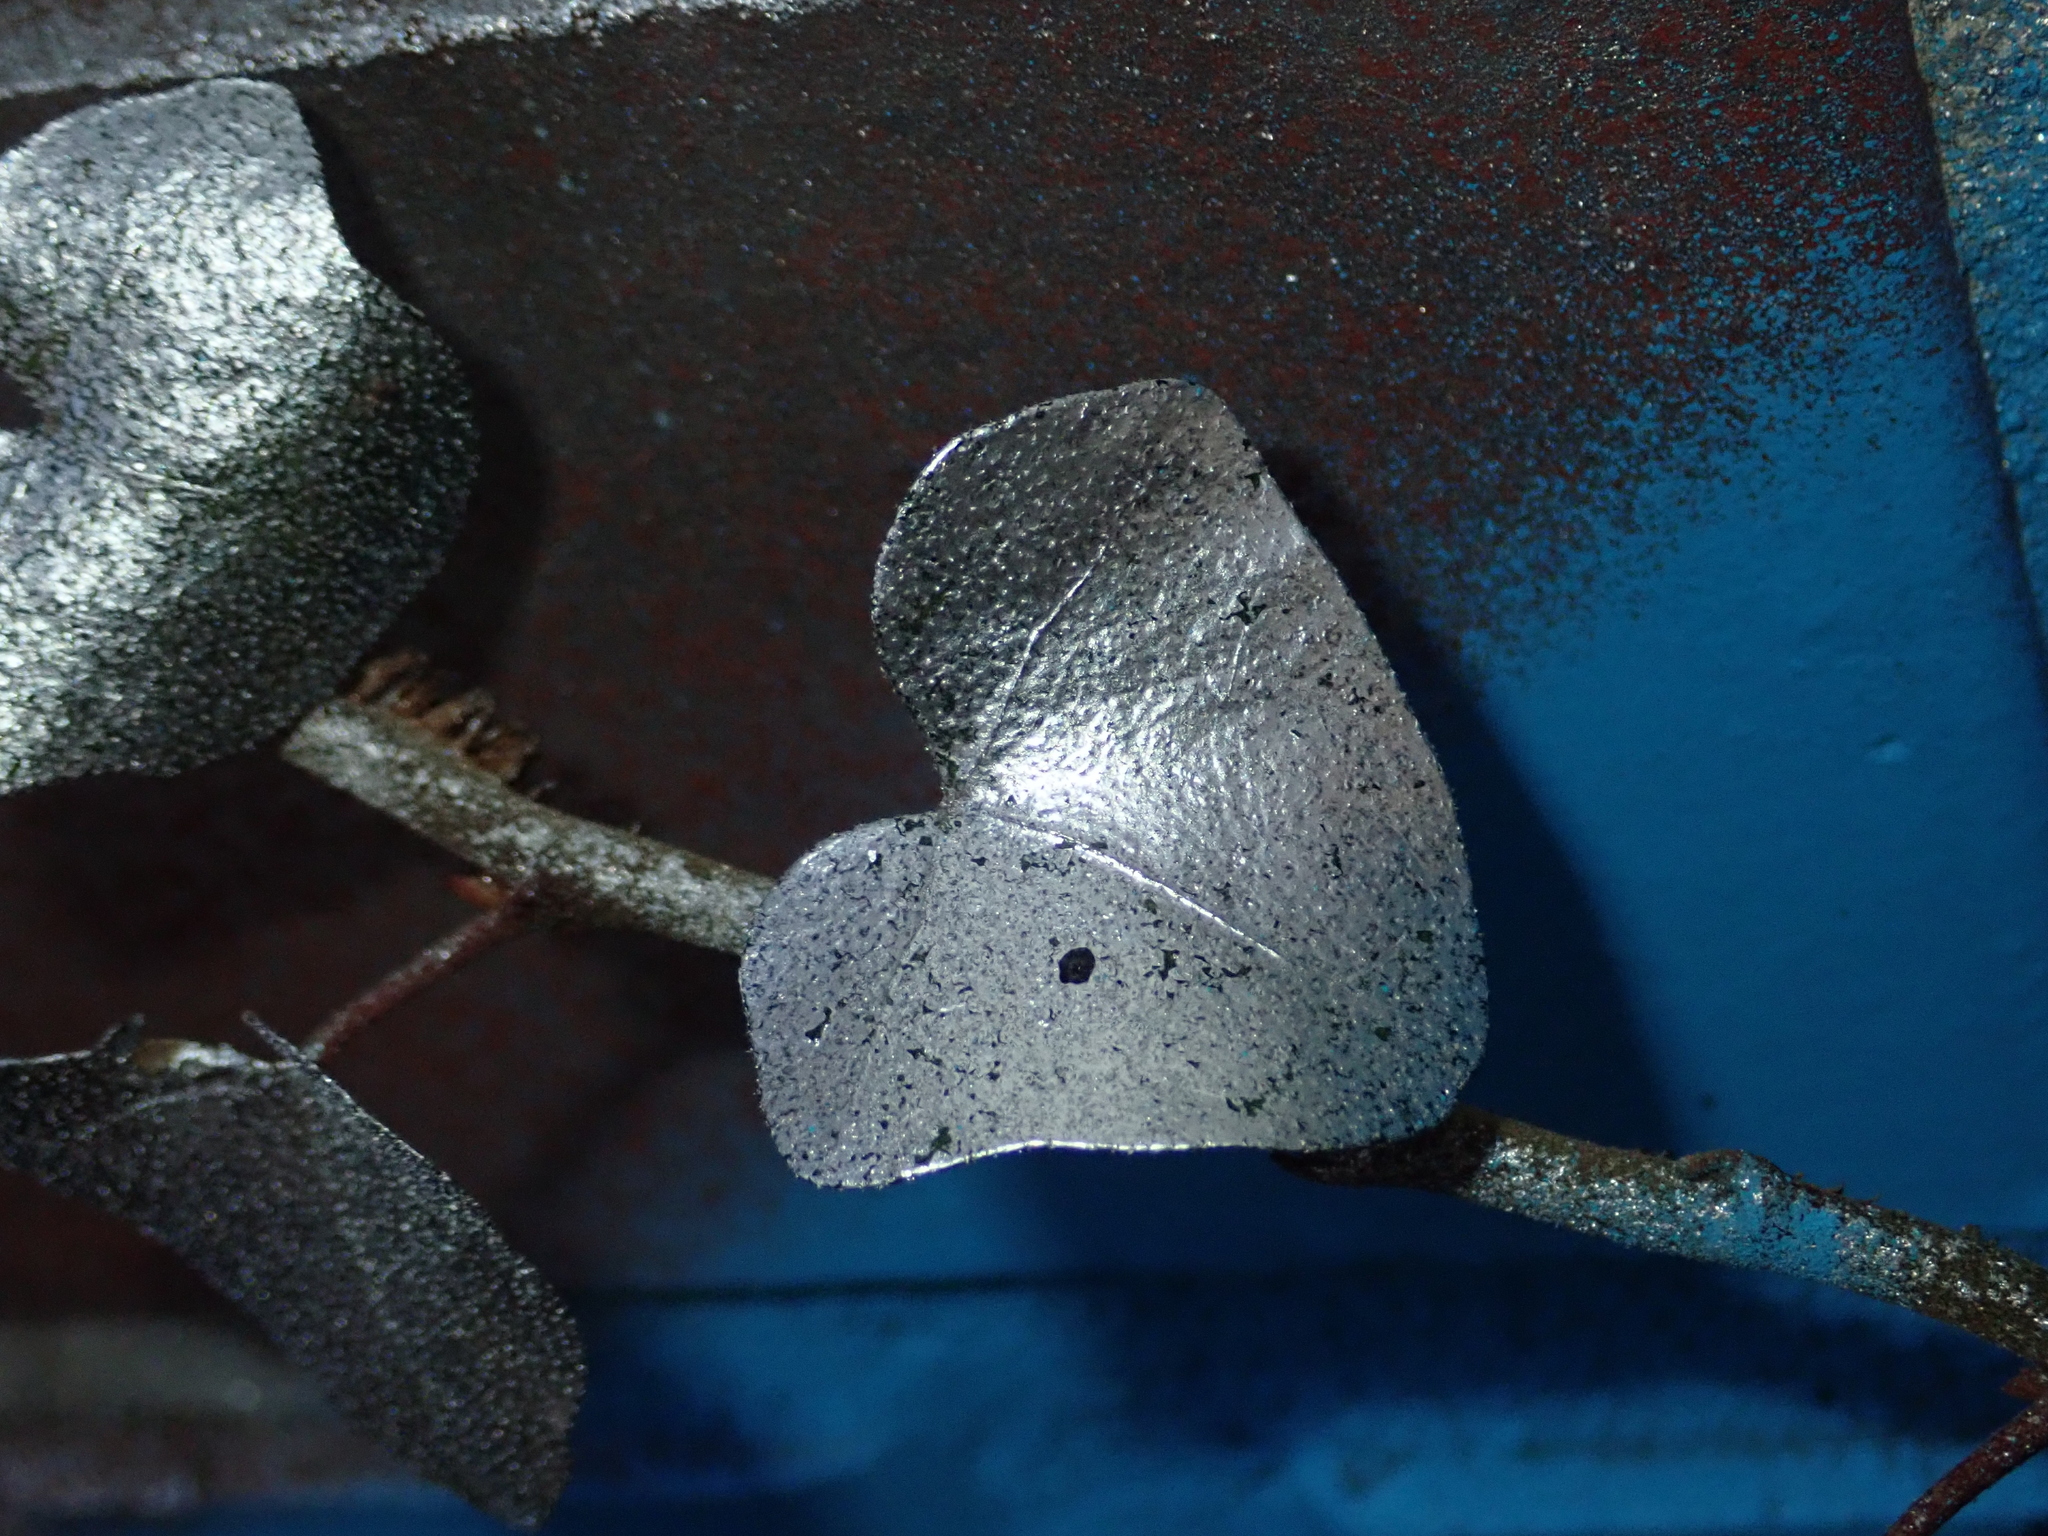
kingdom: Plantae
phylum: Tracheophyta
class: Magnoliopsida
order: Apiales
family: Araliaceae
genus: Hedera
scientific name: Hedera helix
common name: Ivy
